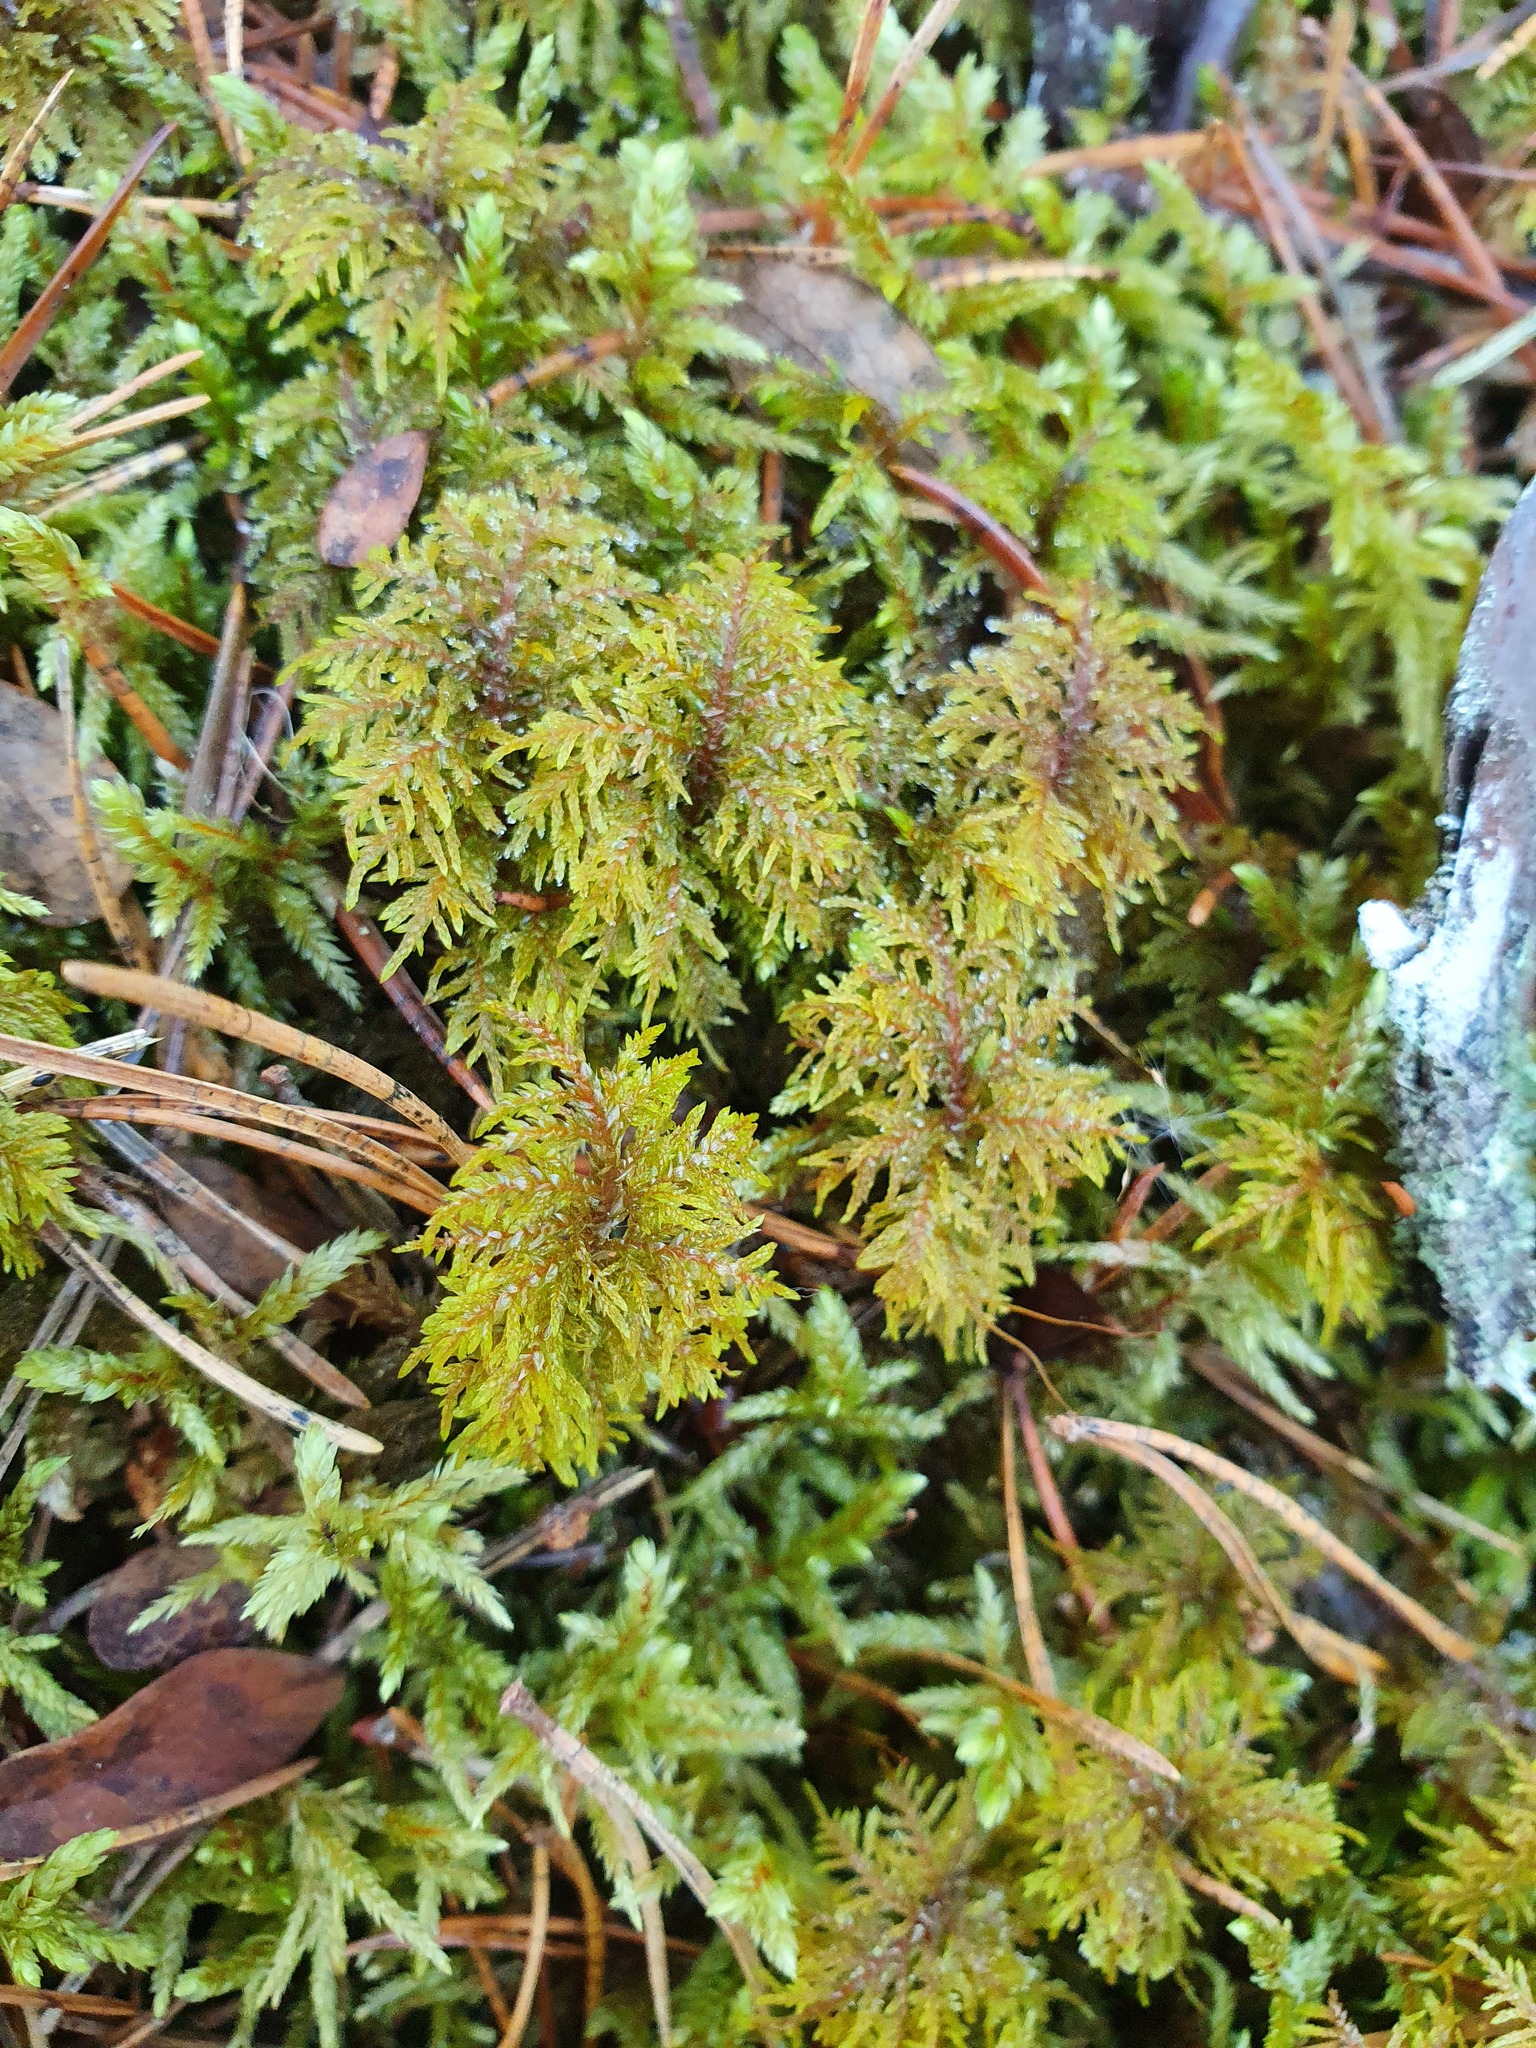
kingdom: Plantae
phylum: Bryophyta
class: Bryopsida
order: Hypnales
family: Hylocomiaceae
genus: Hylocomium
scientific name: Hylocomium splendens
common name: Stairstep moss
